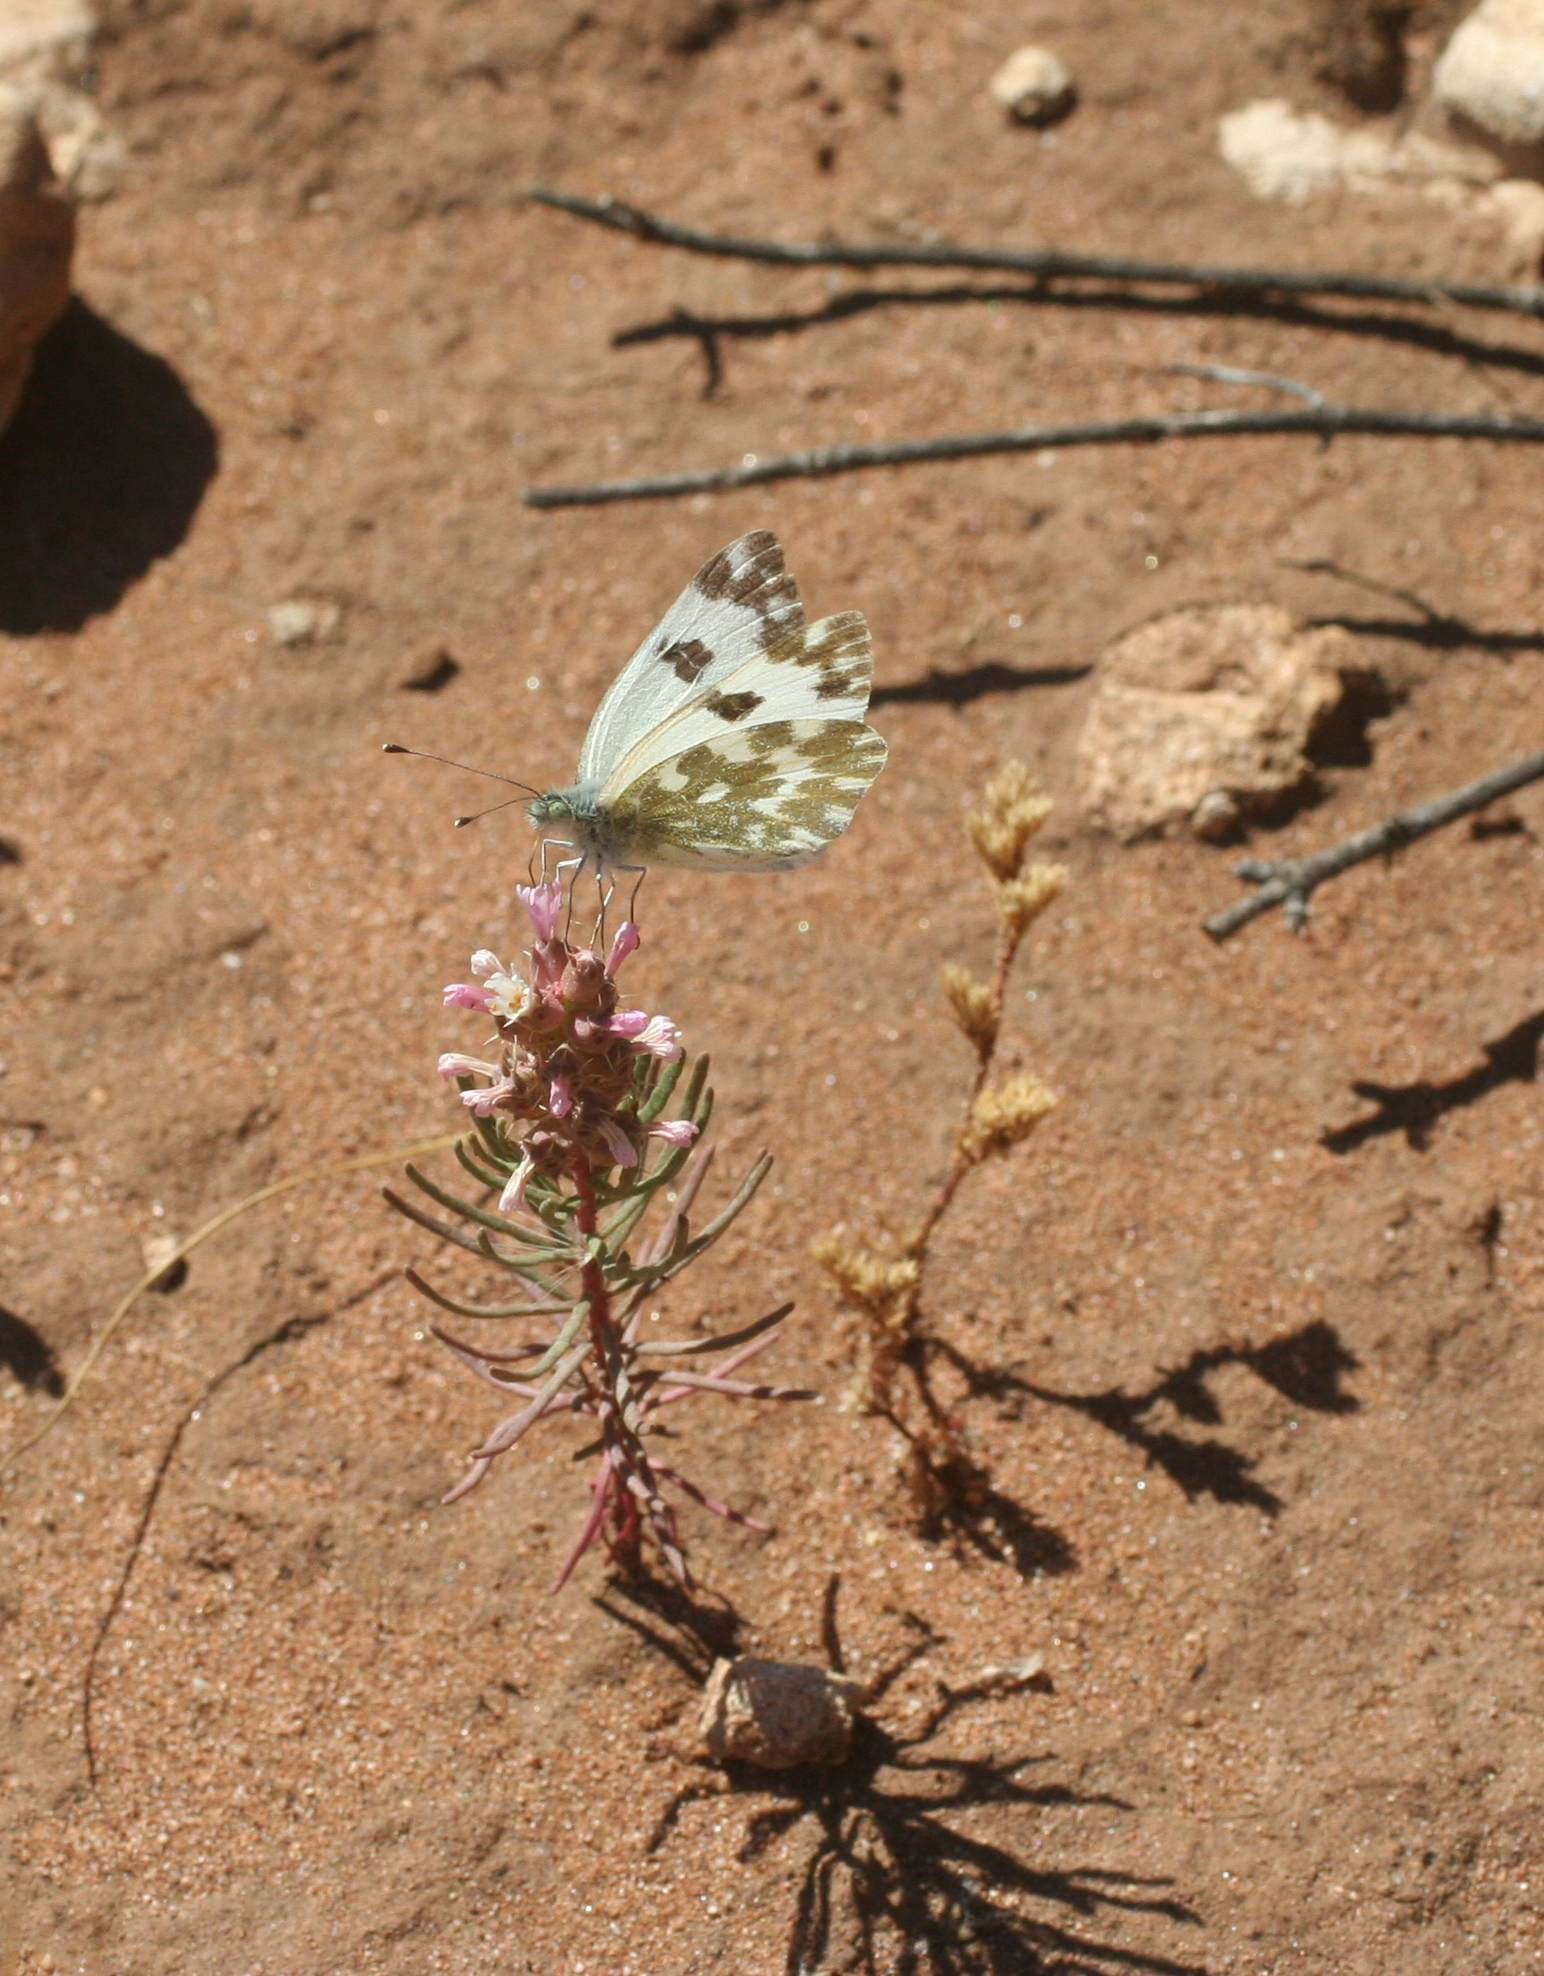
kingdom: Animalia
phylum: Arthropoda
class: Insecta
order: Lepidoptera
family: Pieridae
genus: Pontia
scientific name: Pontia daplidice
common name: Bath white
